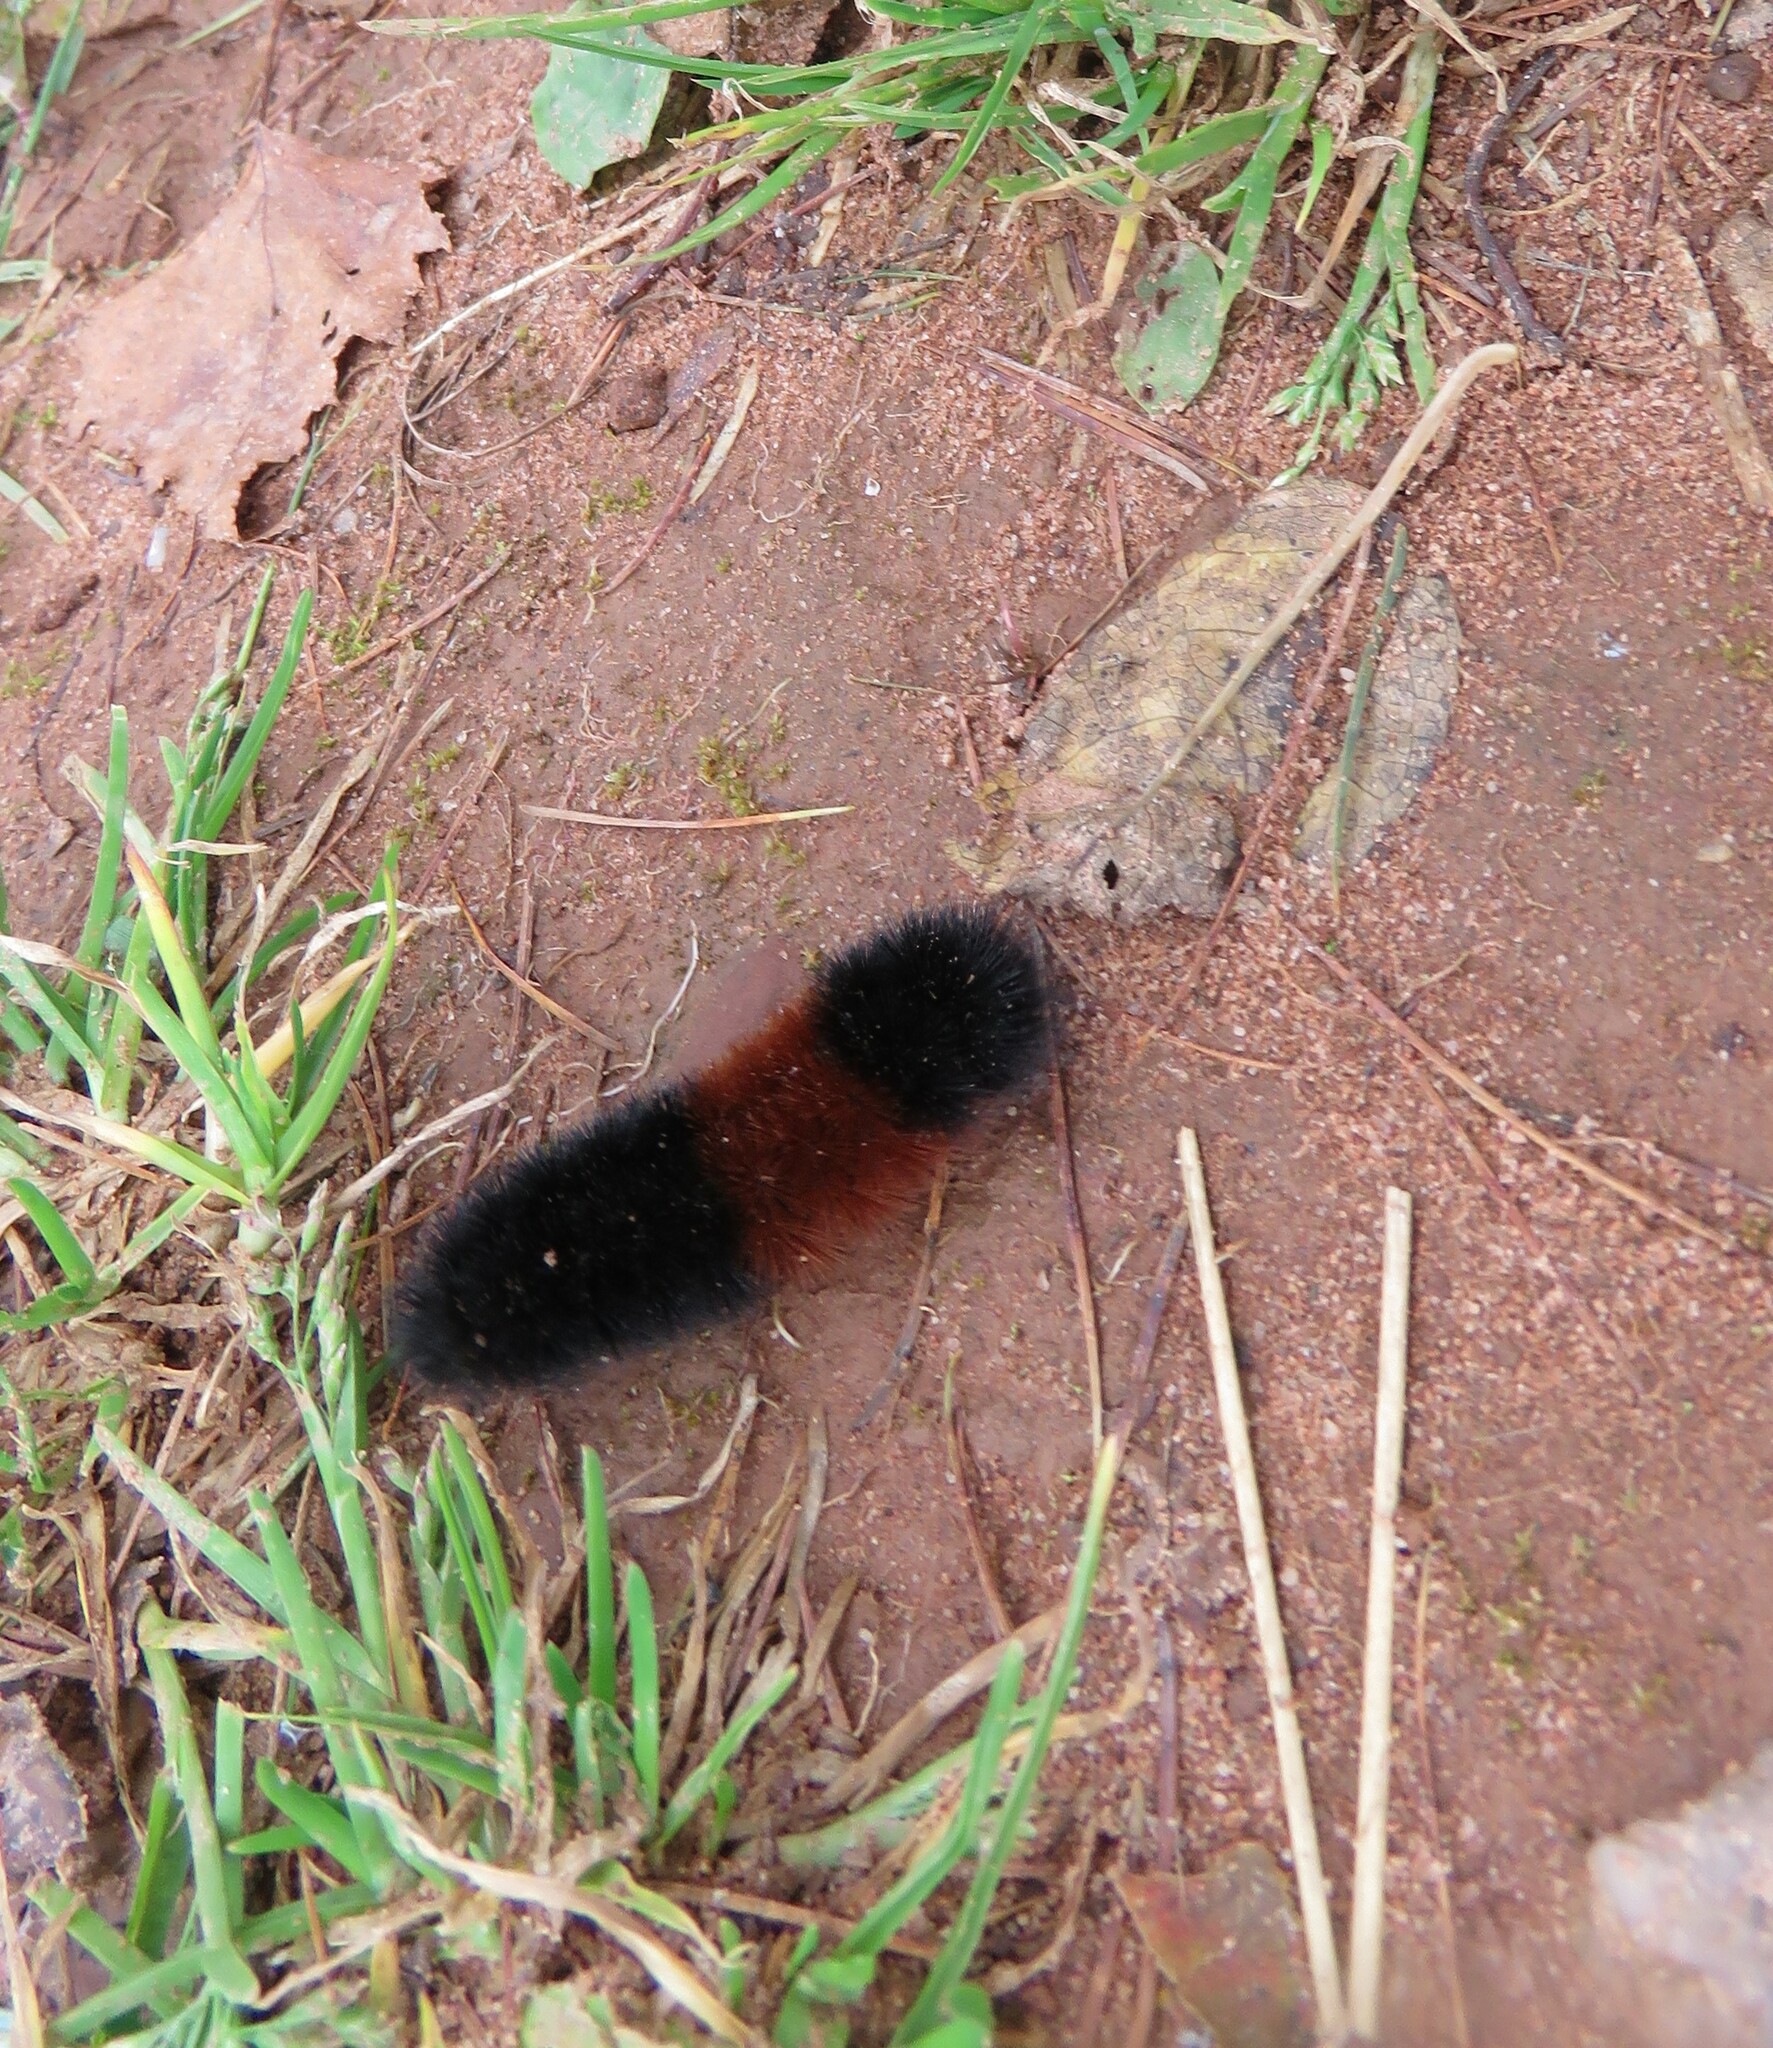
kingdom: Animalia
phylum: Arthropoda
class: Insecta
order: Lepidoptera
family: Erebidae
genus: Pyrrharctia
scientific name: Pyrrharctia isabella
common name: Isabella tiger moth
